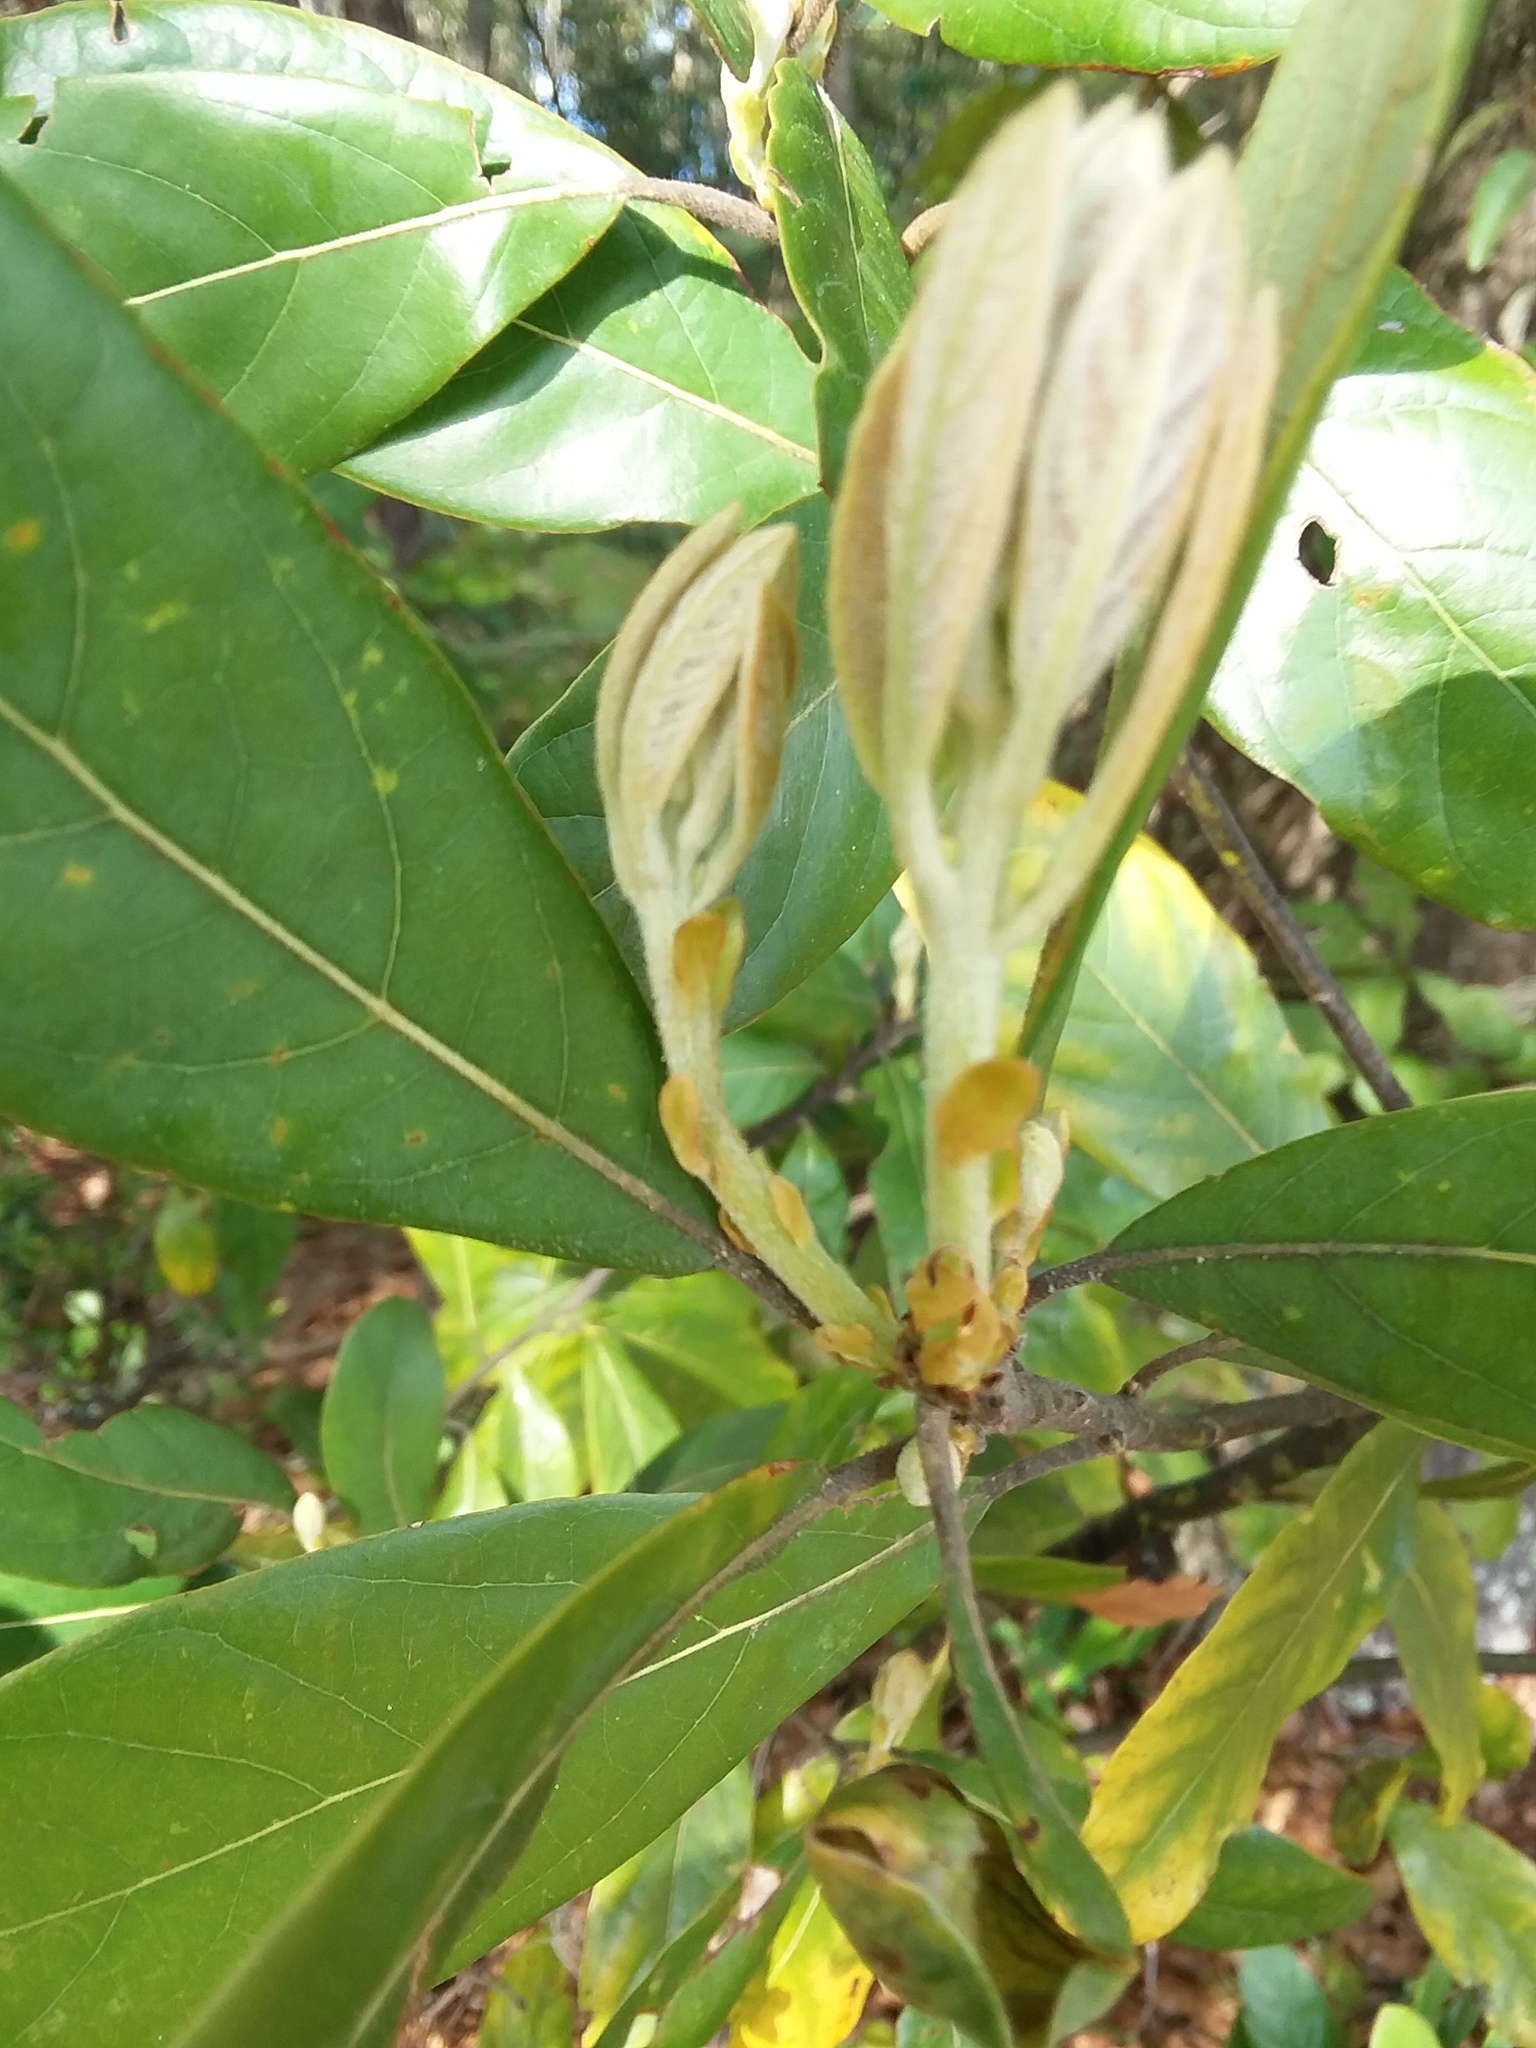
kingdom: Plantae
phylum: Tracheophyta
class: Magnoliopsida
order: Laurales
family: Lauraceae
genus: Persea
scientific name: Persea palustris
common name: Swampbay
